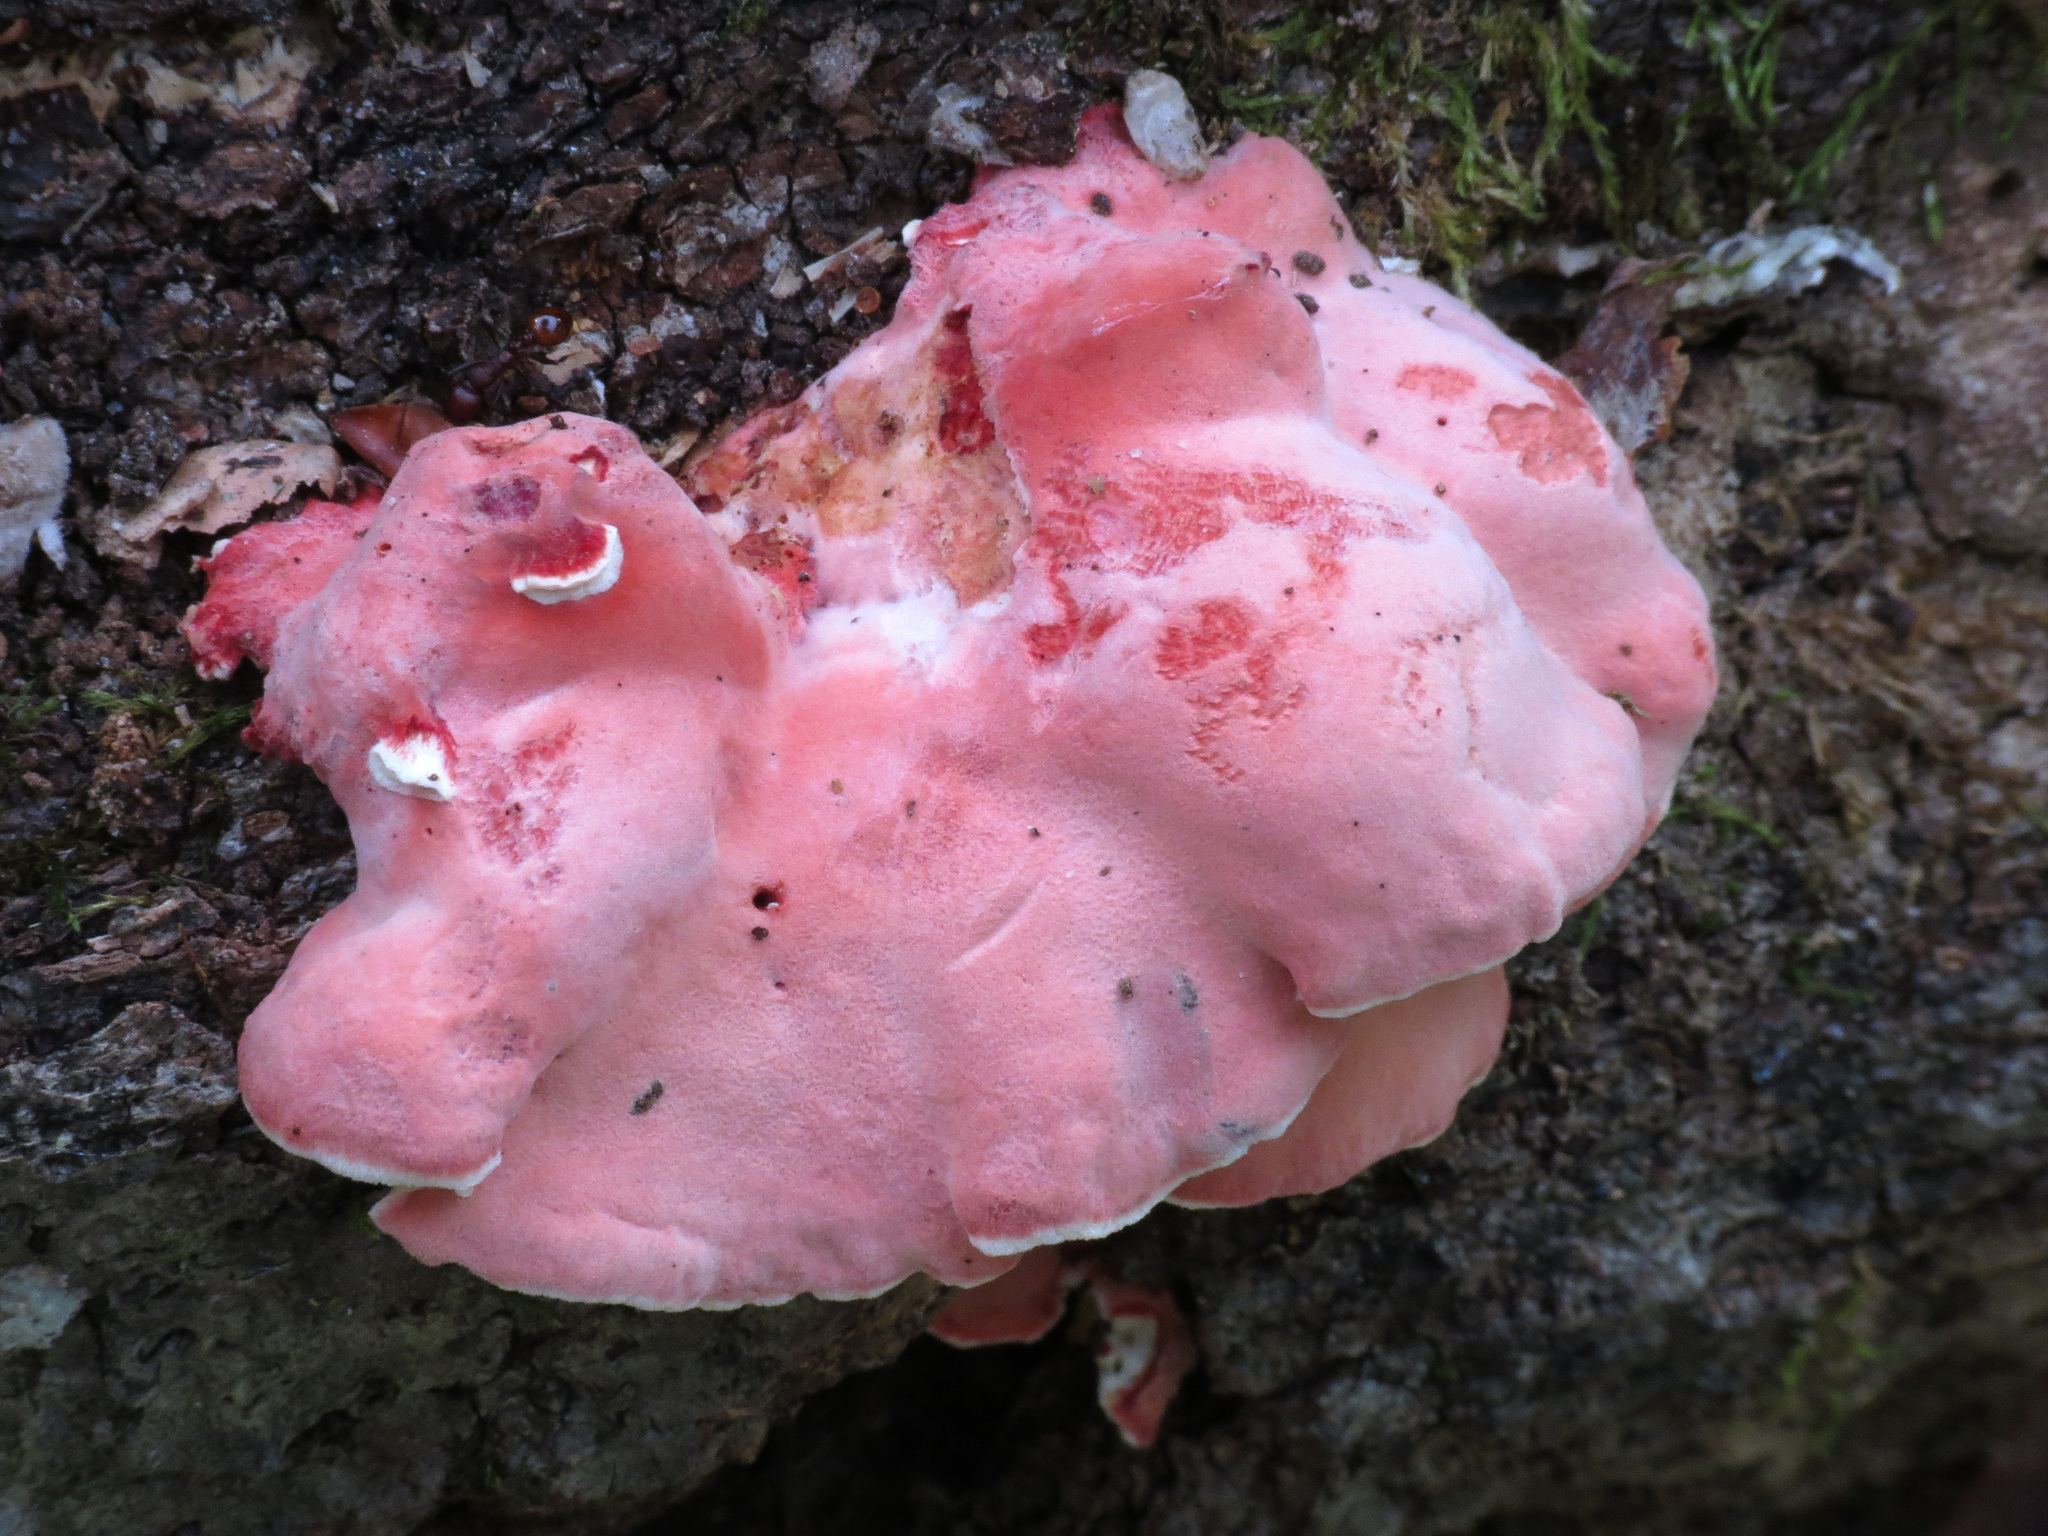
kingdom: Fungi
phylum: Basidiomycota
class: Agaricomycetes
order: Polyporales
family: Irpicaceae
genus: Byssomerulius
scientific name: Byssomerulius incarnatus
